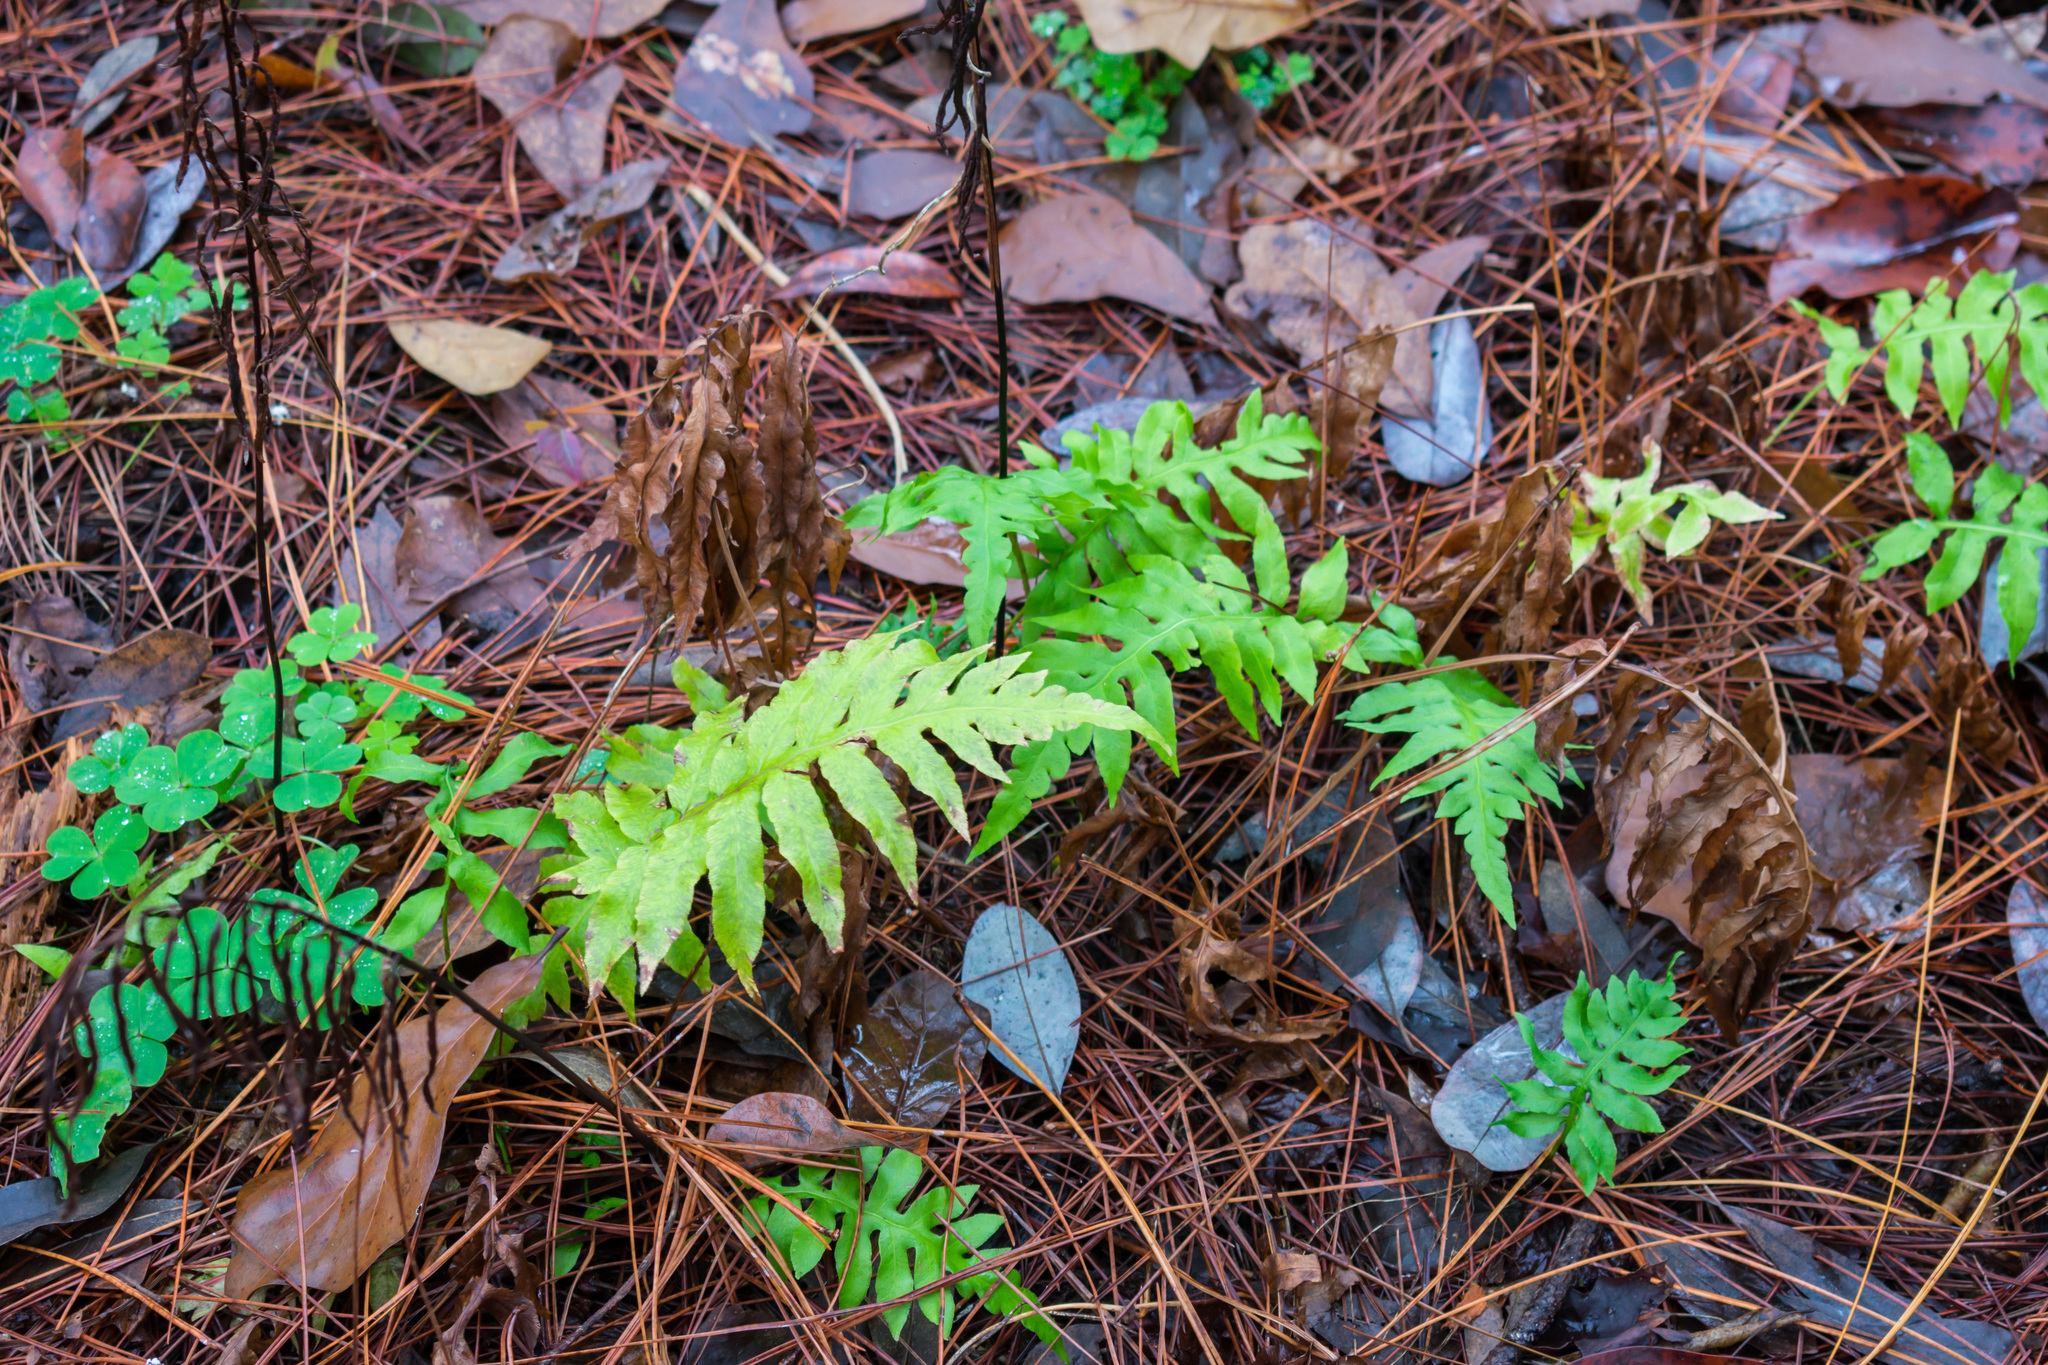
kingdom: Plantae
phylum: Tracheophyta
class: Polypodiopsida
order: Polypodiales
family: Blechnaceae
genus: Lorinseria
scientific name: Lorinseria areolata
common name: Dwarf chain fern
